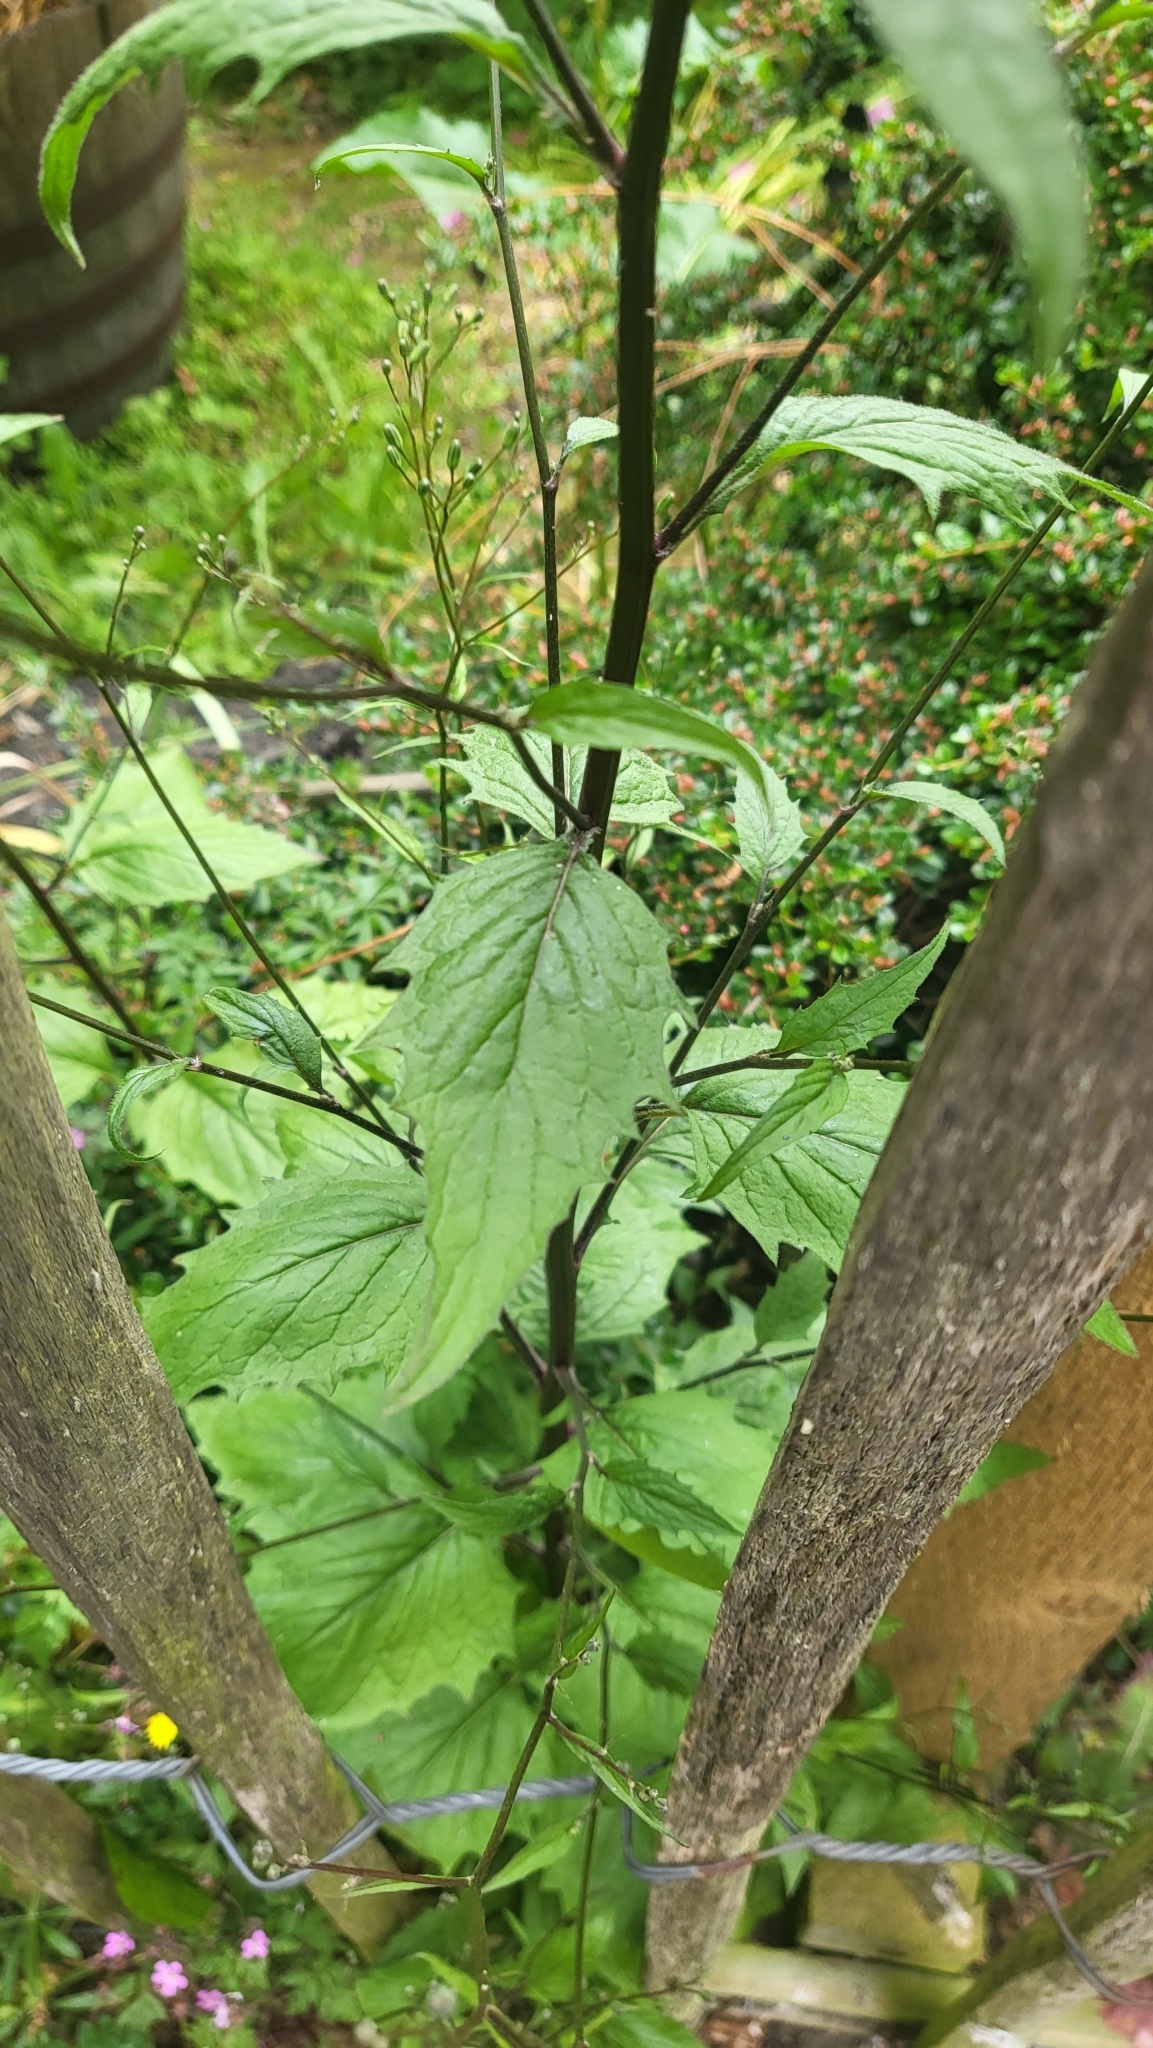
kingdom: Plantae
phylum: Tracheophyta
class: Magnoliopsida
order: Asterales
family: Asteraceae
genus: Lapsana
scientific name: Lapsana communis
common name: Nipplewort
